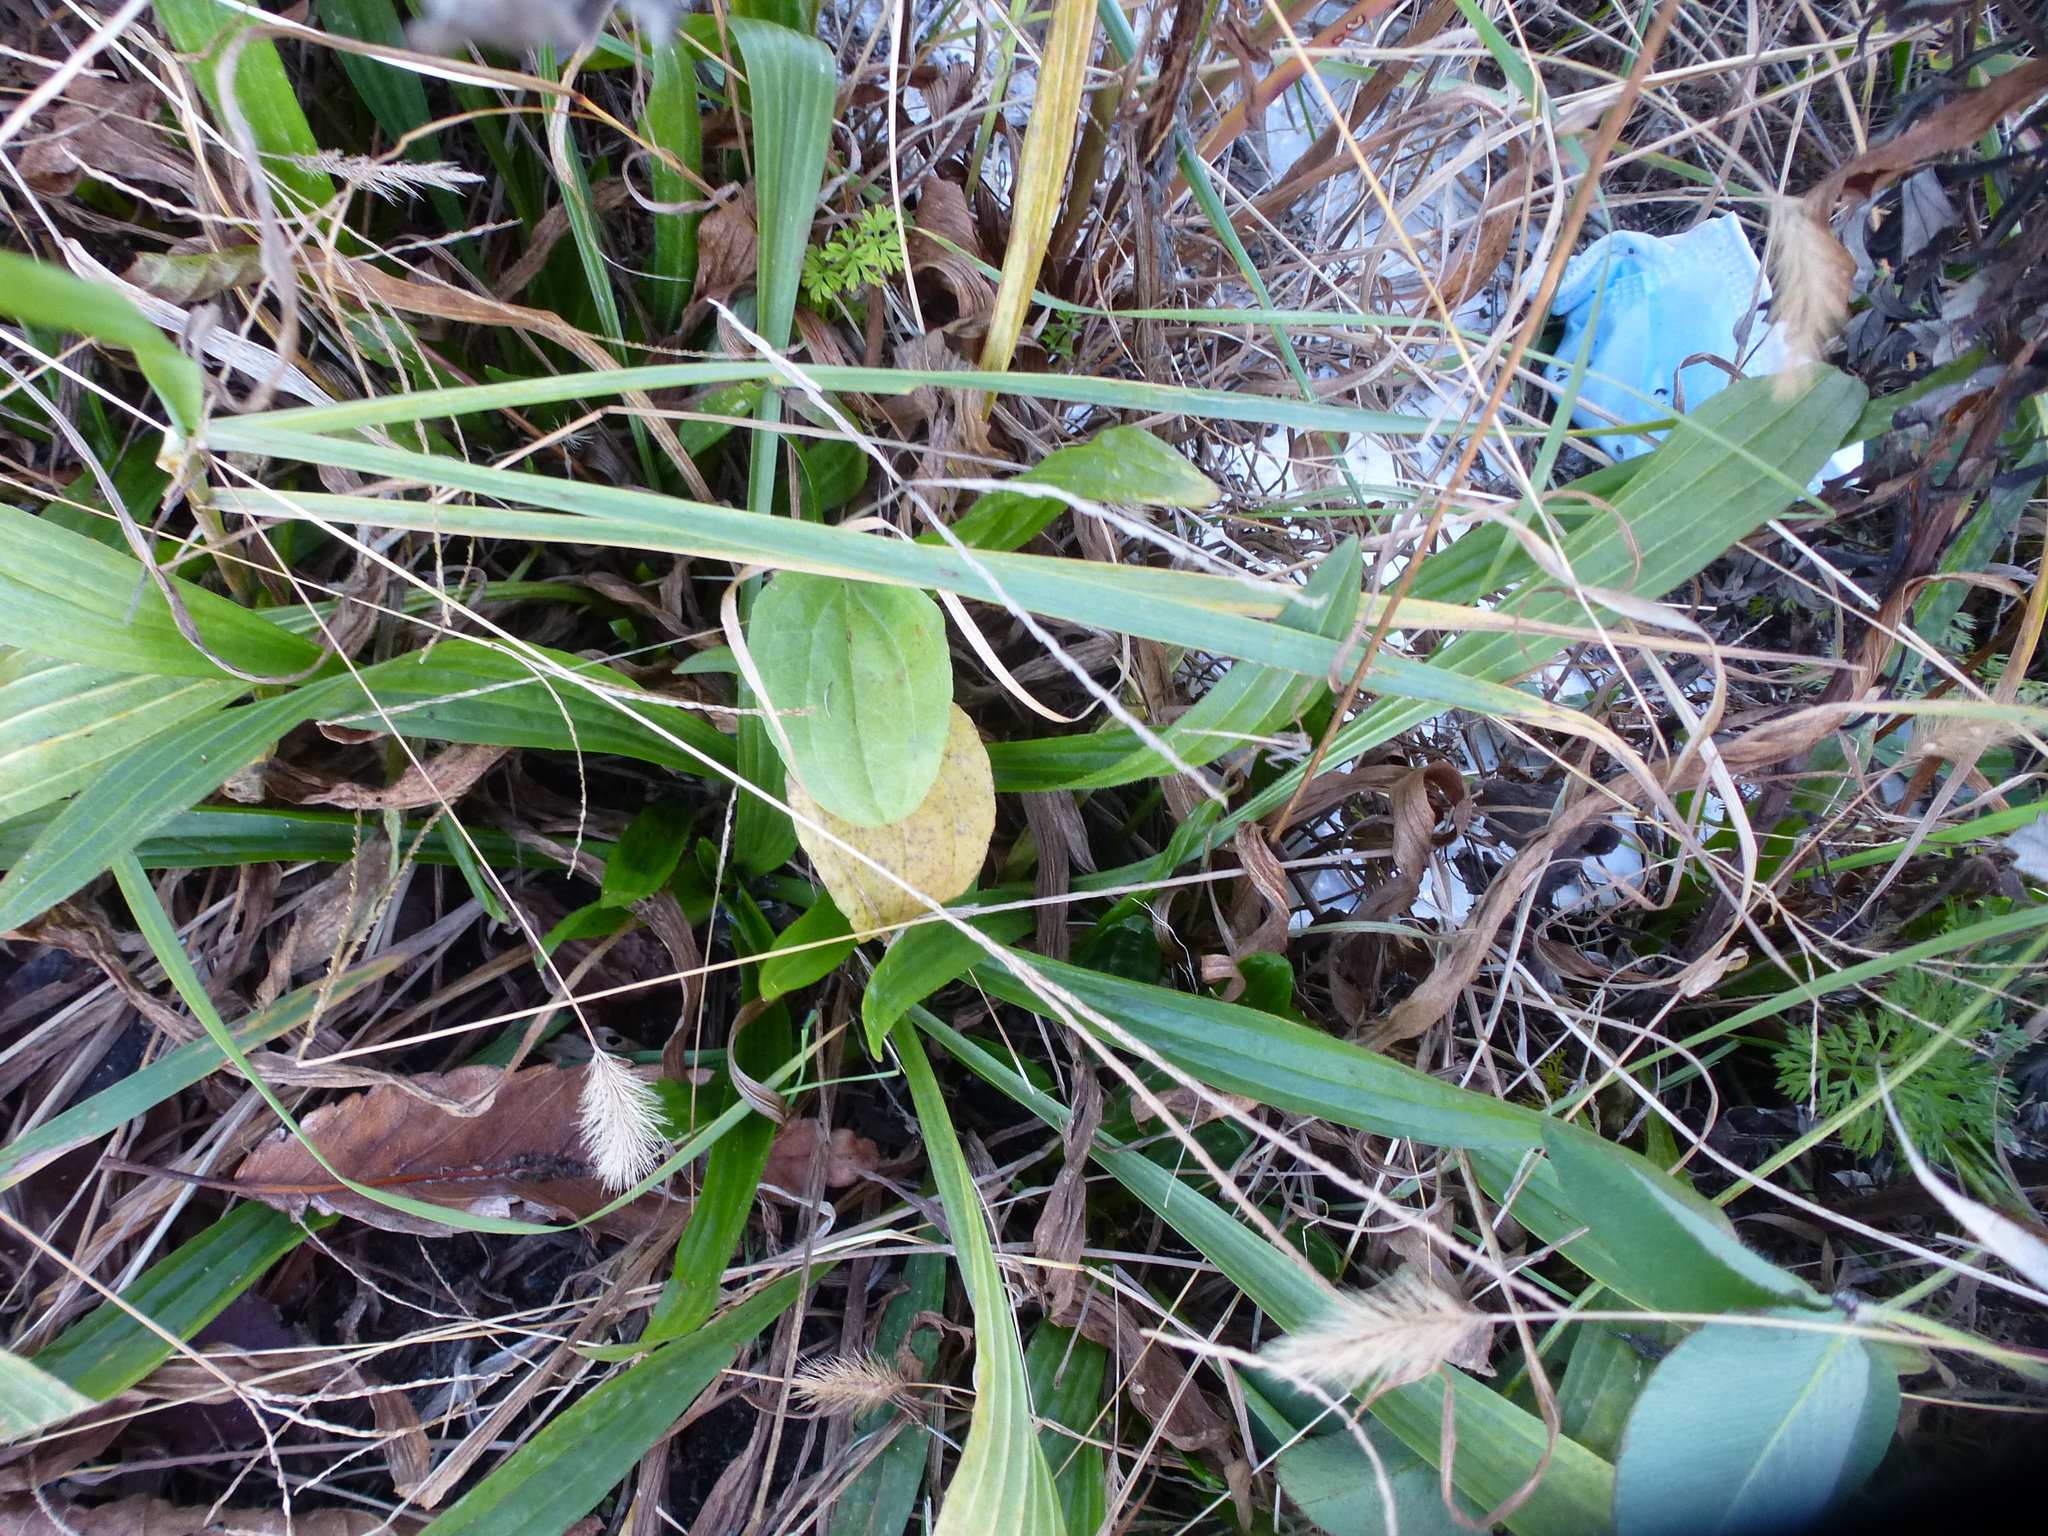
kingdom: Plantae
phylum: Tracheophyta
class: Magnoliopsida
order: Lamiales
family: Plantaginaceae
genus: Plantago
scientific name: Plantago lanceolata
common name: Ribwort plantain
